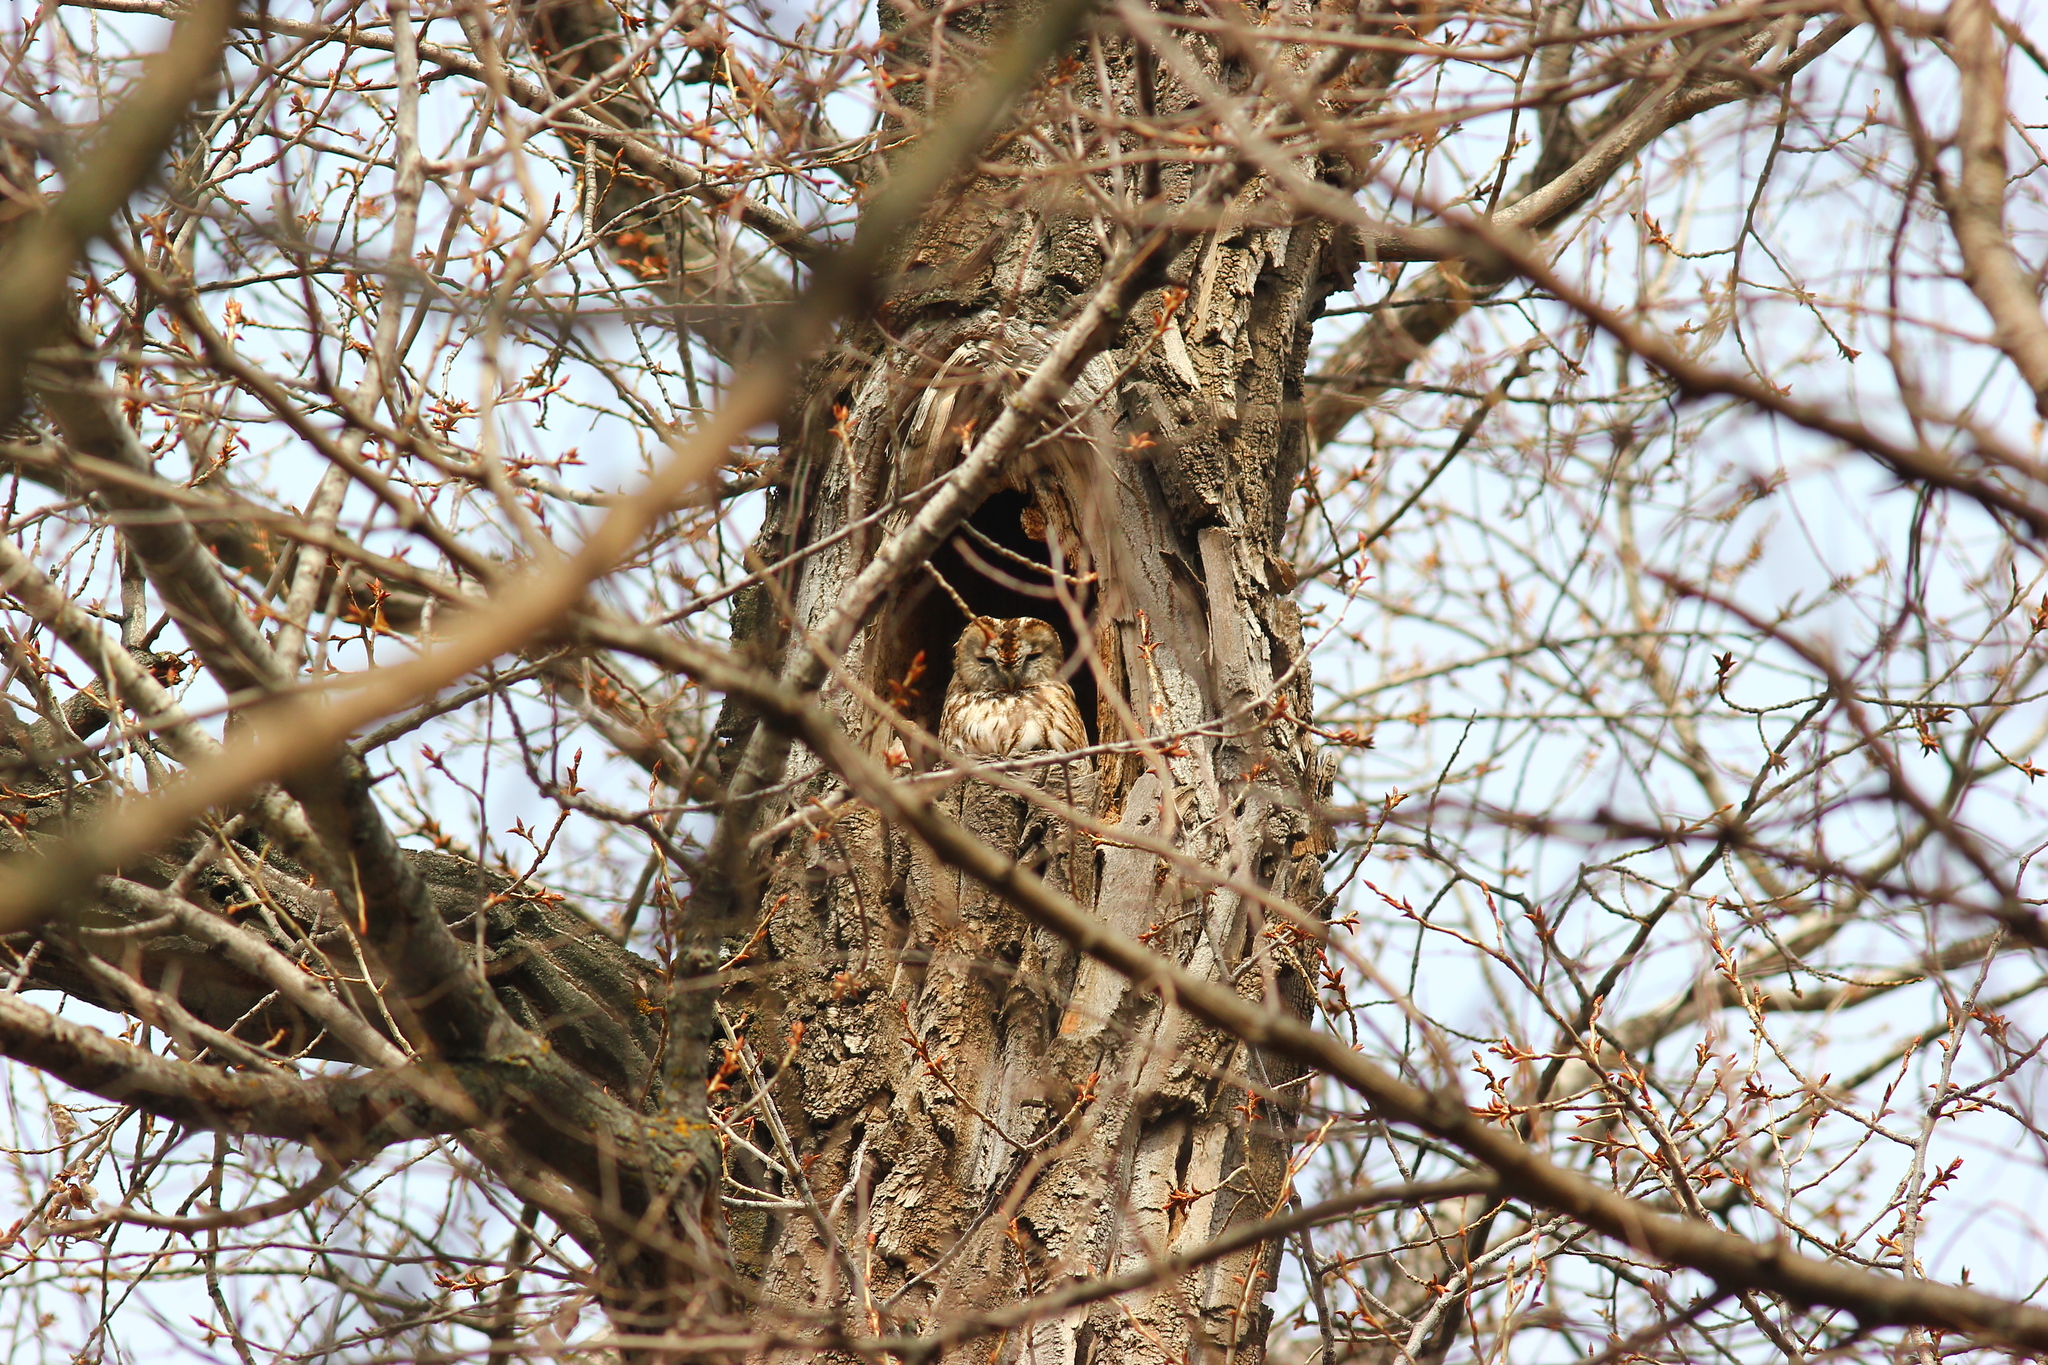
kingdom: Animalia
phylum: Chordata
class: Aves
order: Strigiformes
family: Strigidae
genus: Strix
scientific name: Strix aluco
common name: Tawny owl
